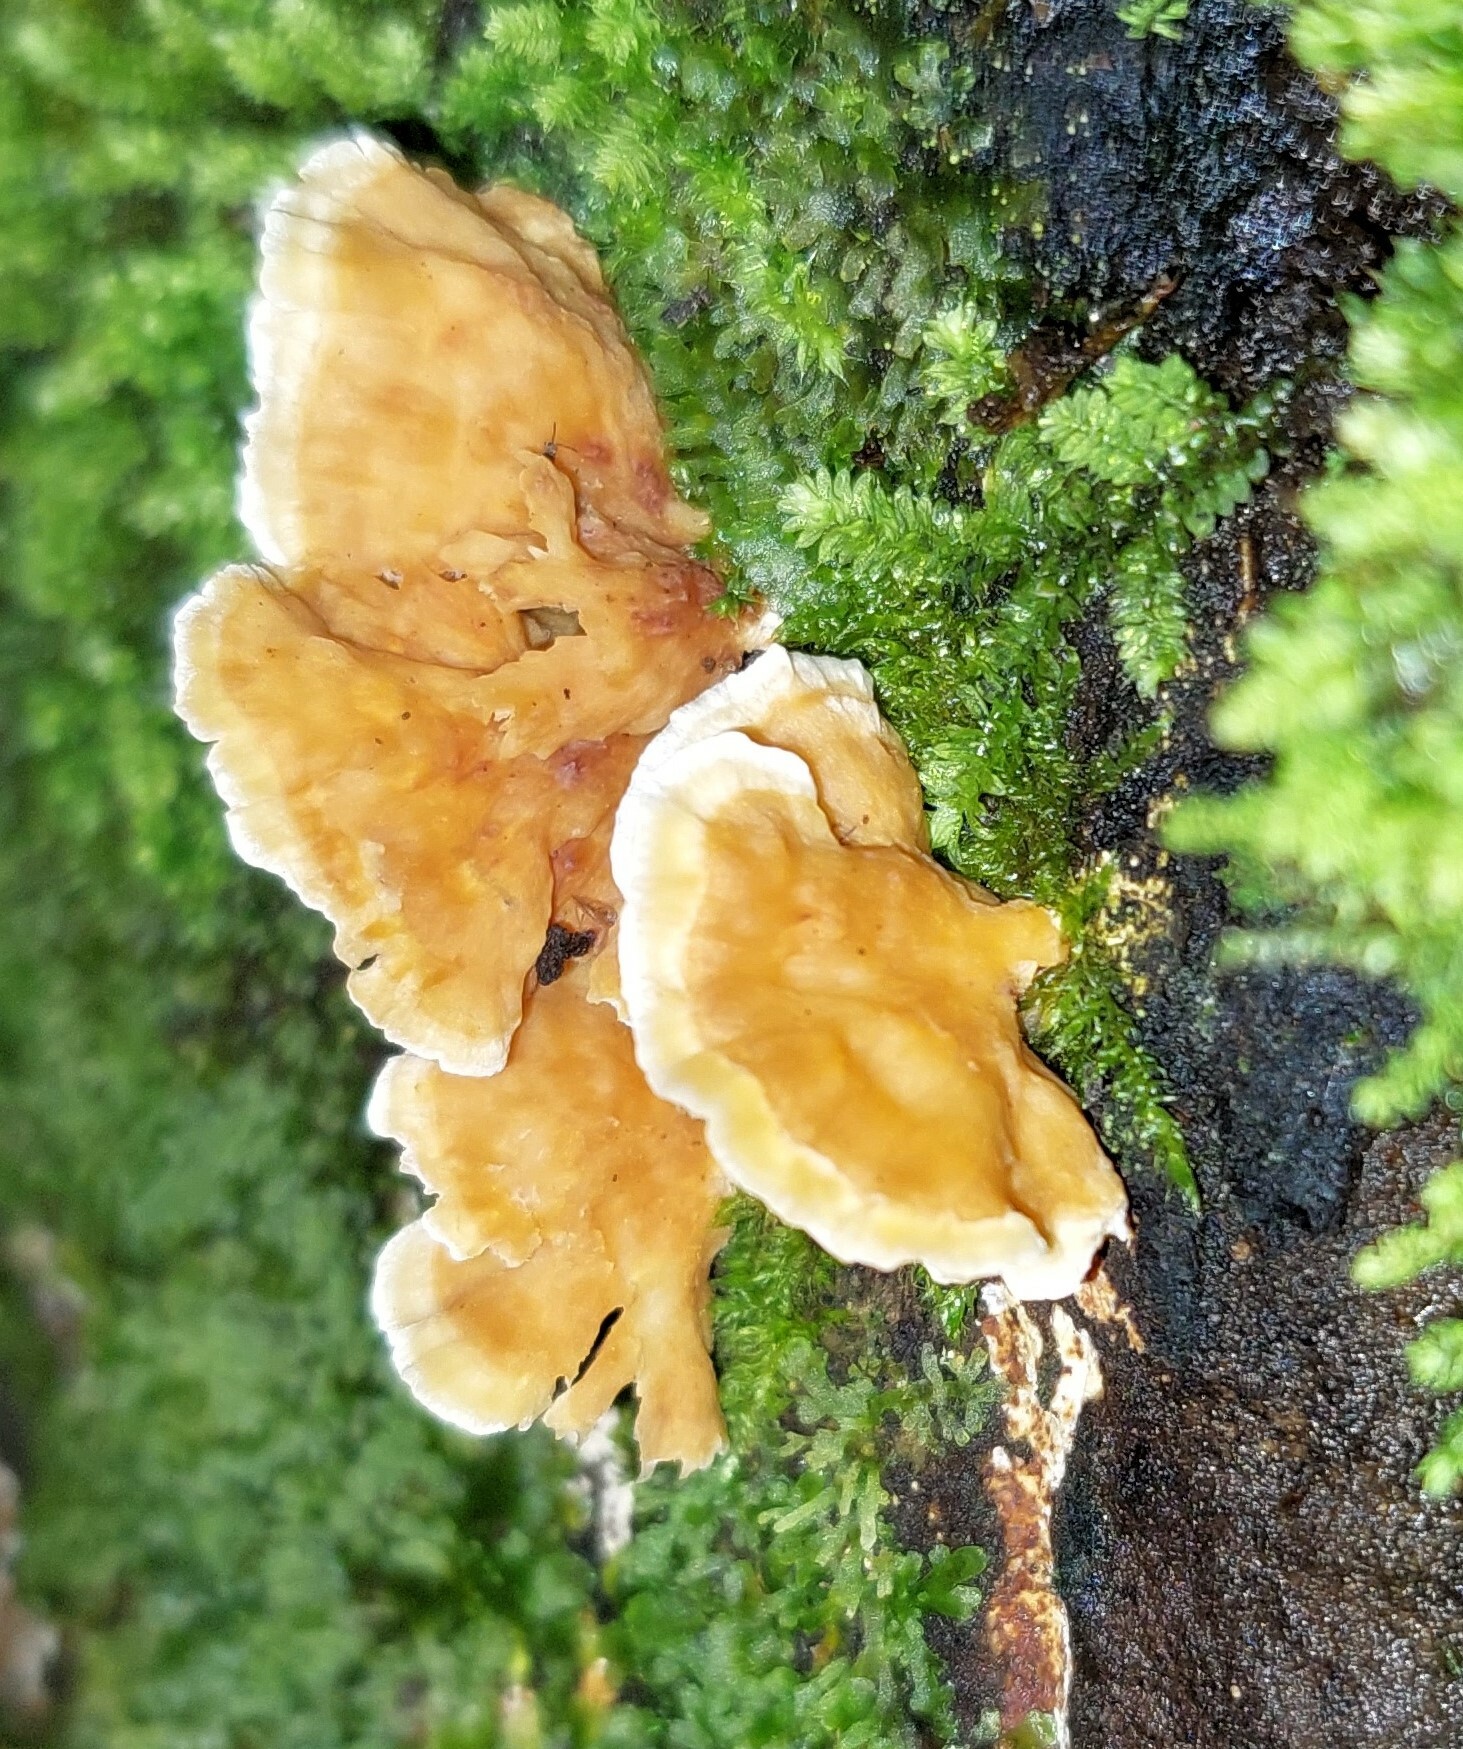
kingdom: Fungi
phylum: Basidiomycota
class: Agaricomycetes
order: Polyporales
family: Cerrenaceae
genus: Cerrena
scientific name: Cerrena zonata
